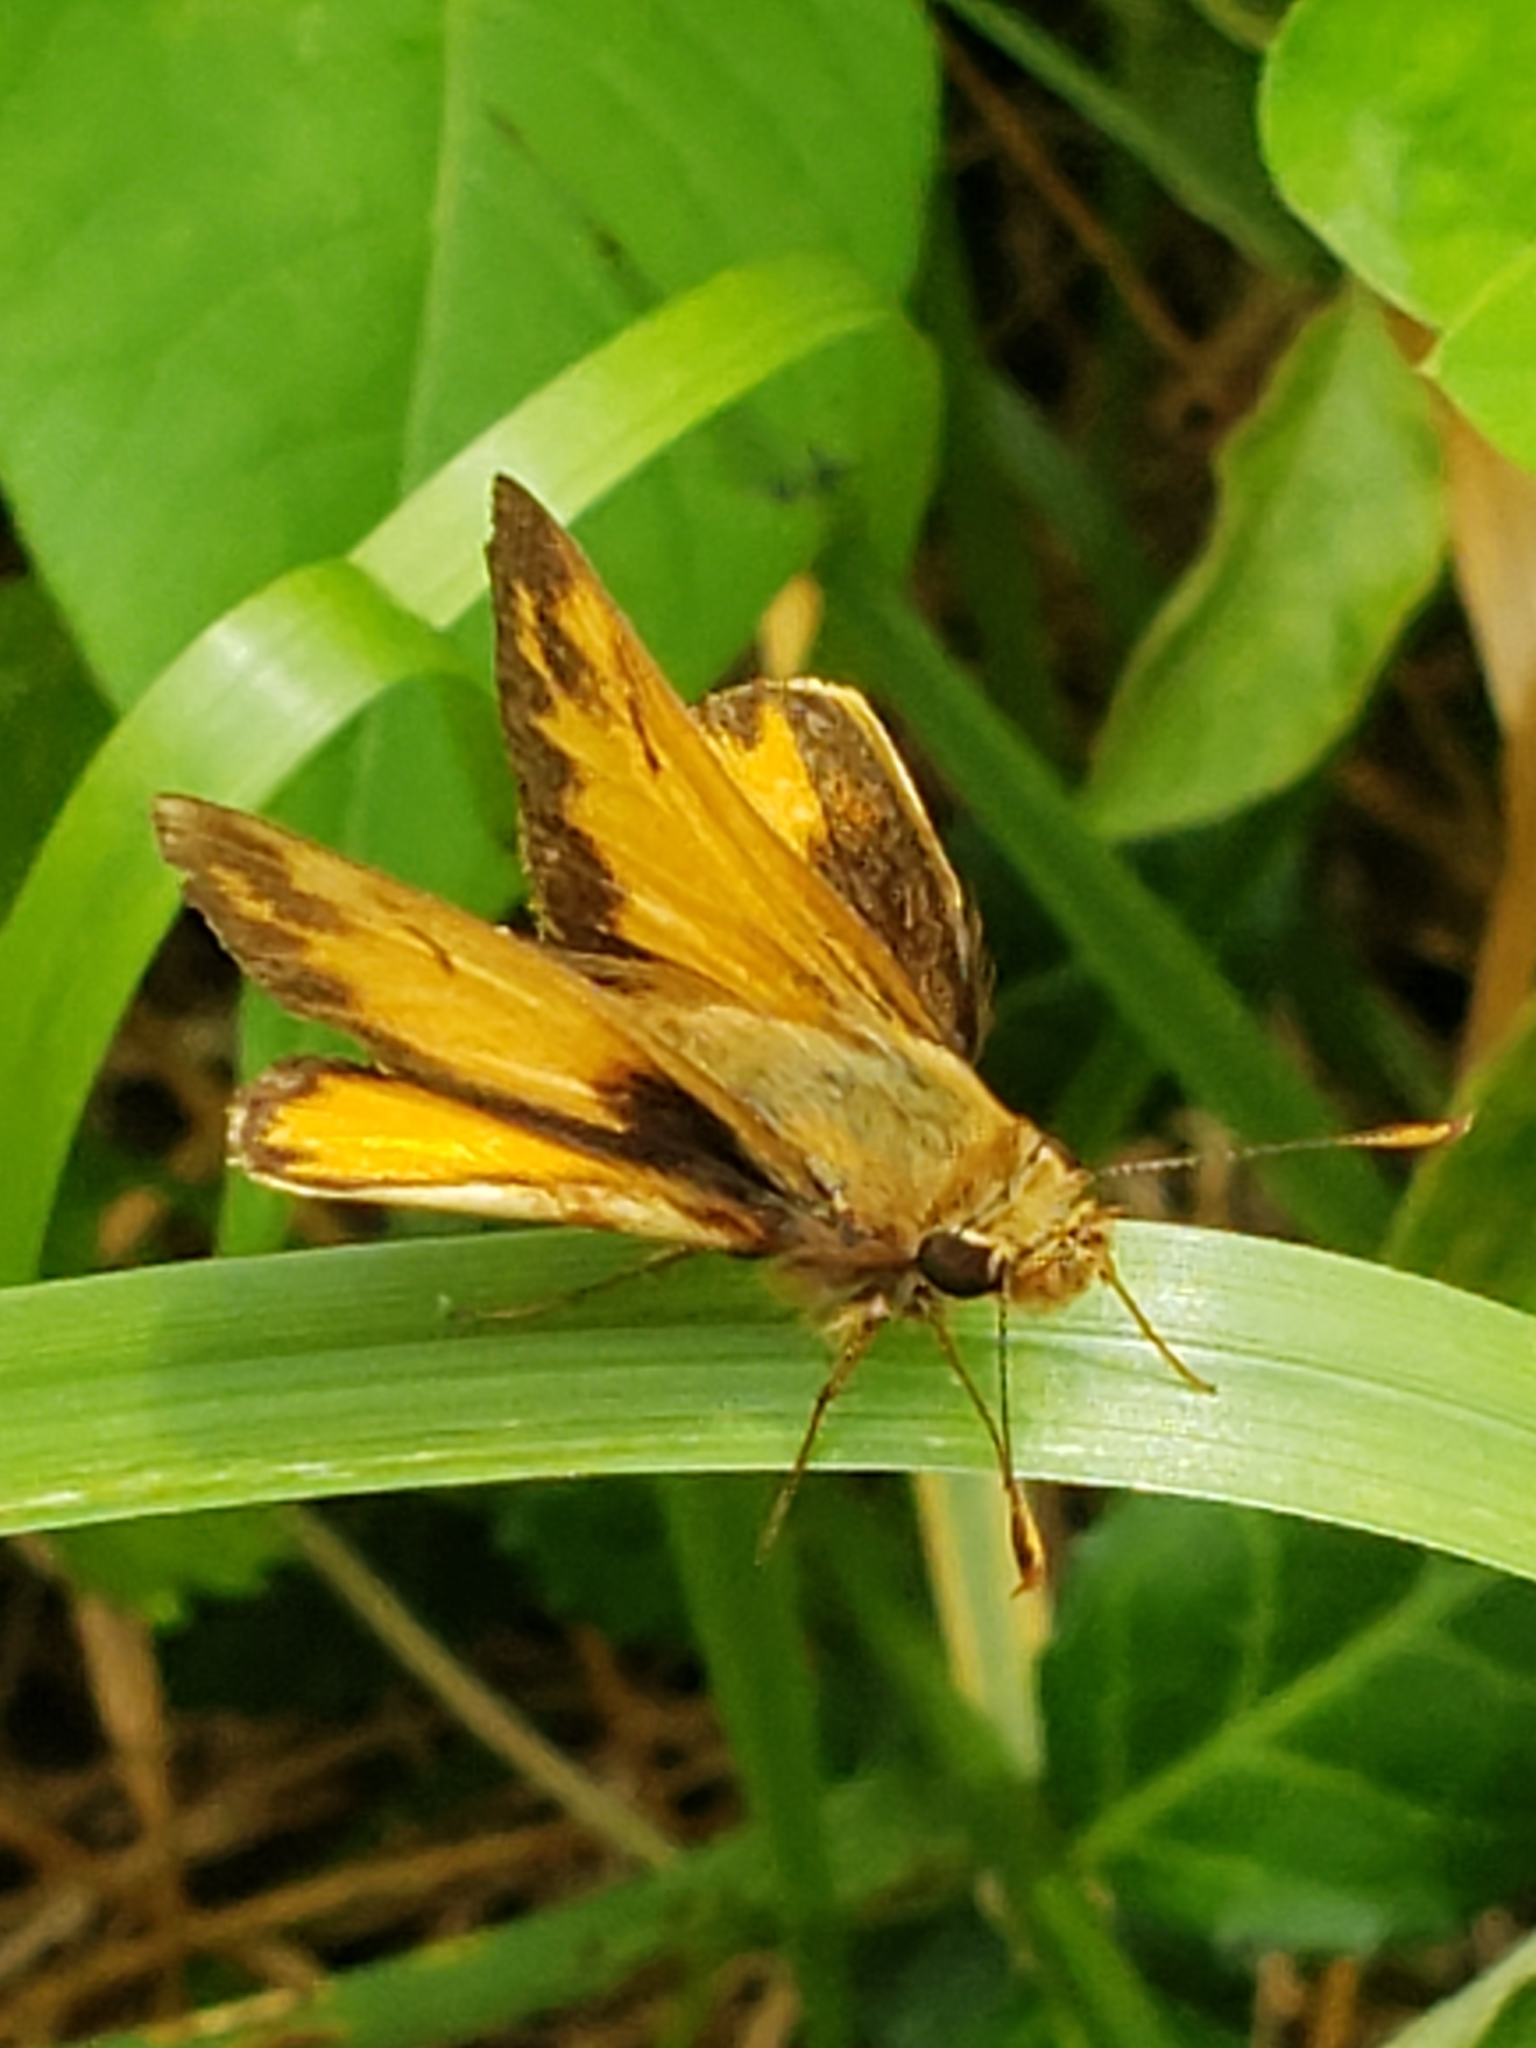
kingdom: Animalia
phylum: Arthropoda
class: Insecta
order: Lepidoptera
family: Hesperiidae
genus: Lon
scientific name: Lon zabulon
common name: Zabulon skipper
